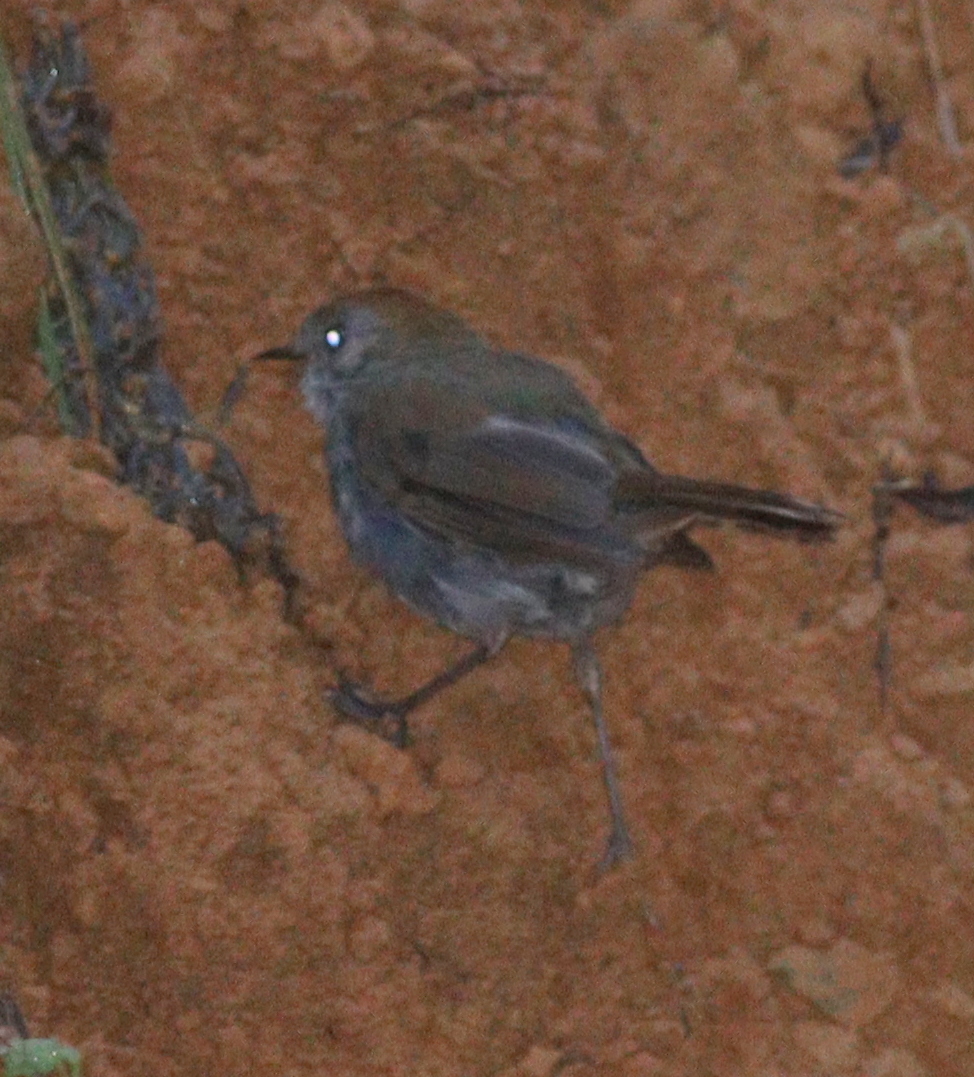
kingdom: Animalia
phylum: Chordata
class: Aves
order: Passeriformes
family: Turdidae
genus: Catharus
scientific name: Catharus frantzii
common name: Ruddy-capped nightingale-thrush
